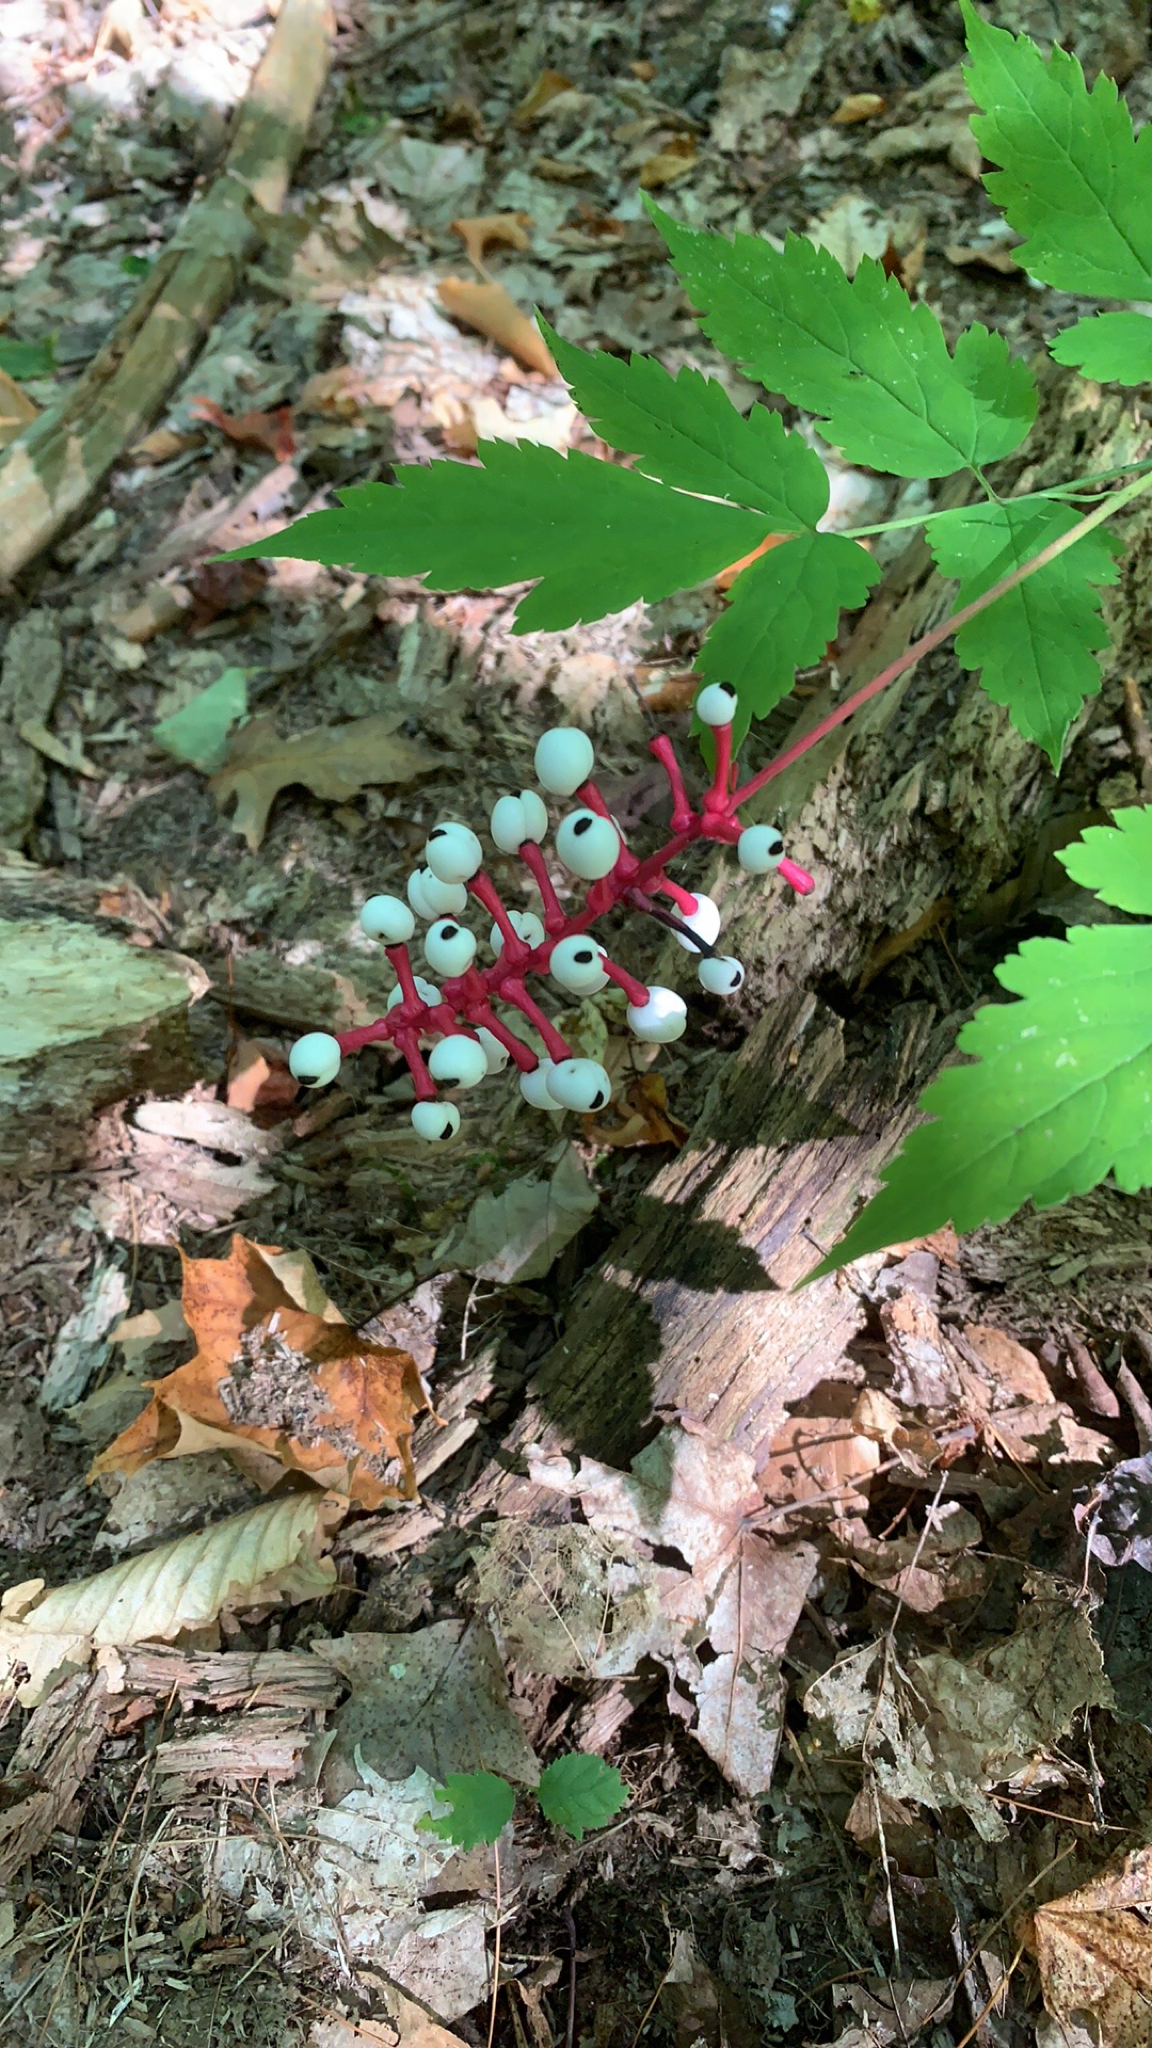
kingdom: Plantae
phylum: Tracheophyta
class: Magnoliopsida
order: Ranunculales
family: Ranunculaceae
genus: Actaea
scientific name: Actaea pachypoda
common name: Doll's-eyes
